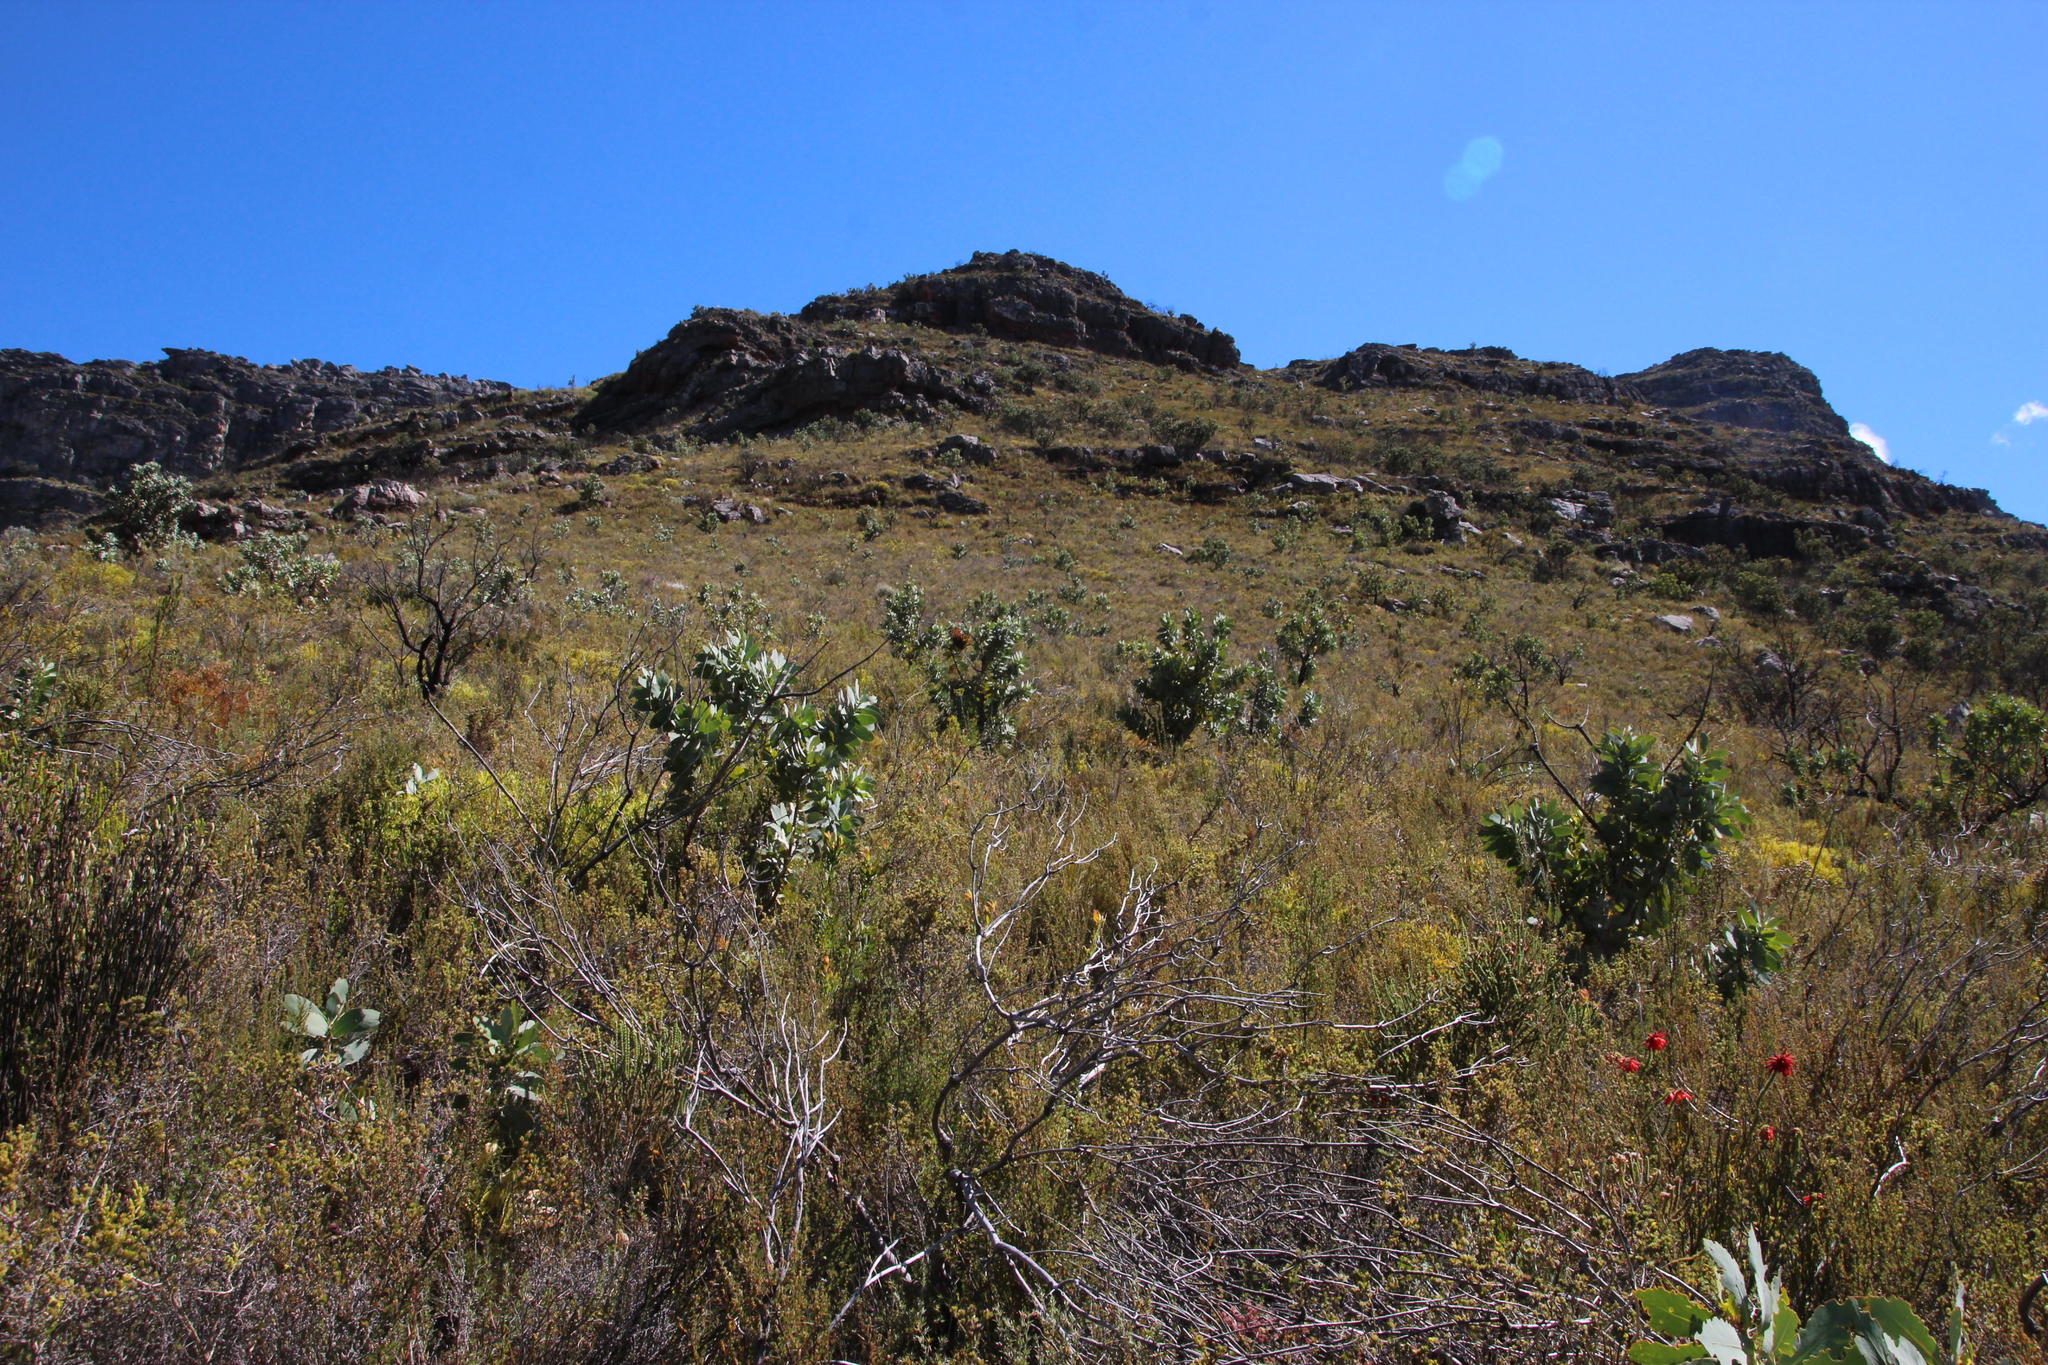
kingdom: Plantae
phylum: Tracheophyta
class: Magnoliopsida
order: Proteales
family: Proteaceae
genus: Protea
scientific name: Protea nitida
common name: Tree protea
